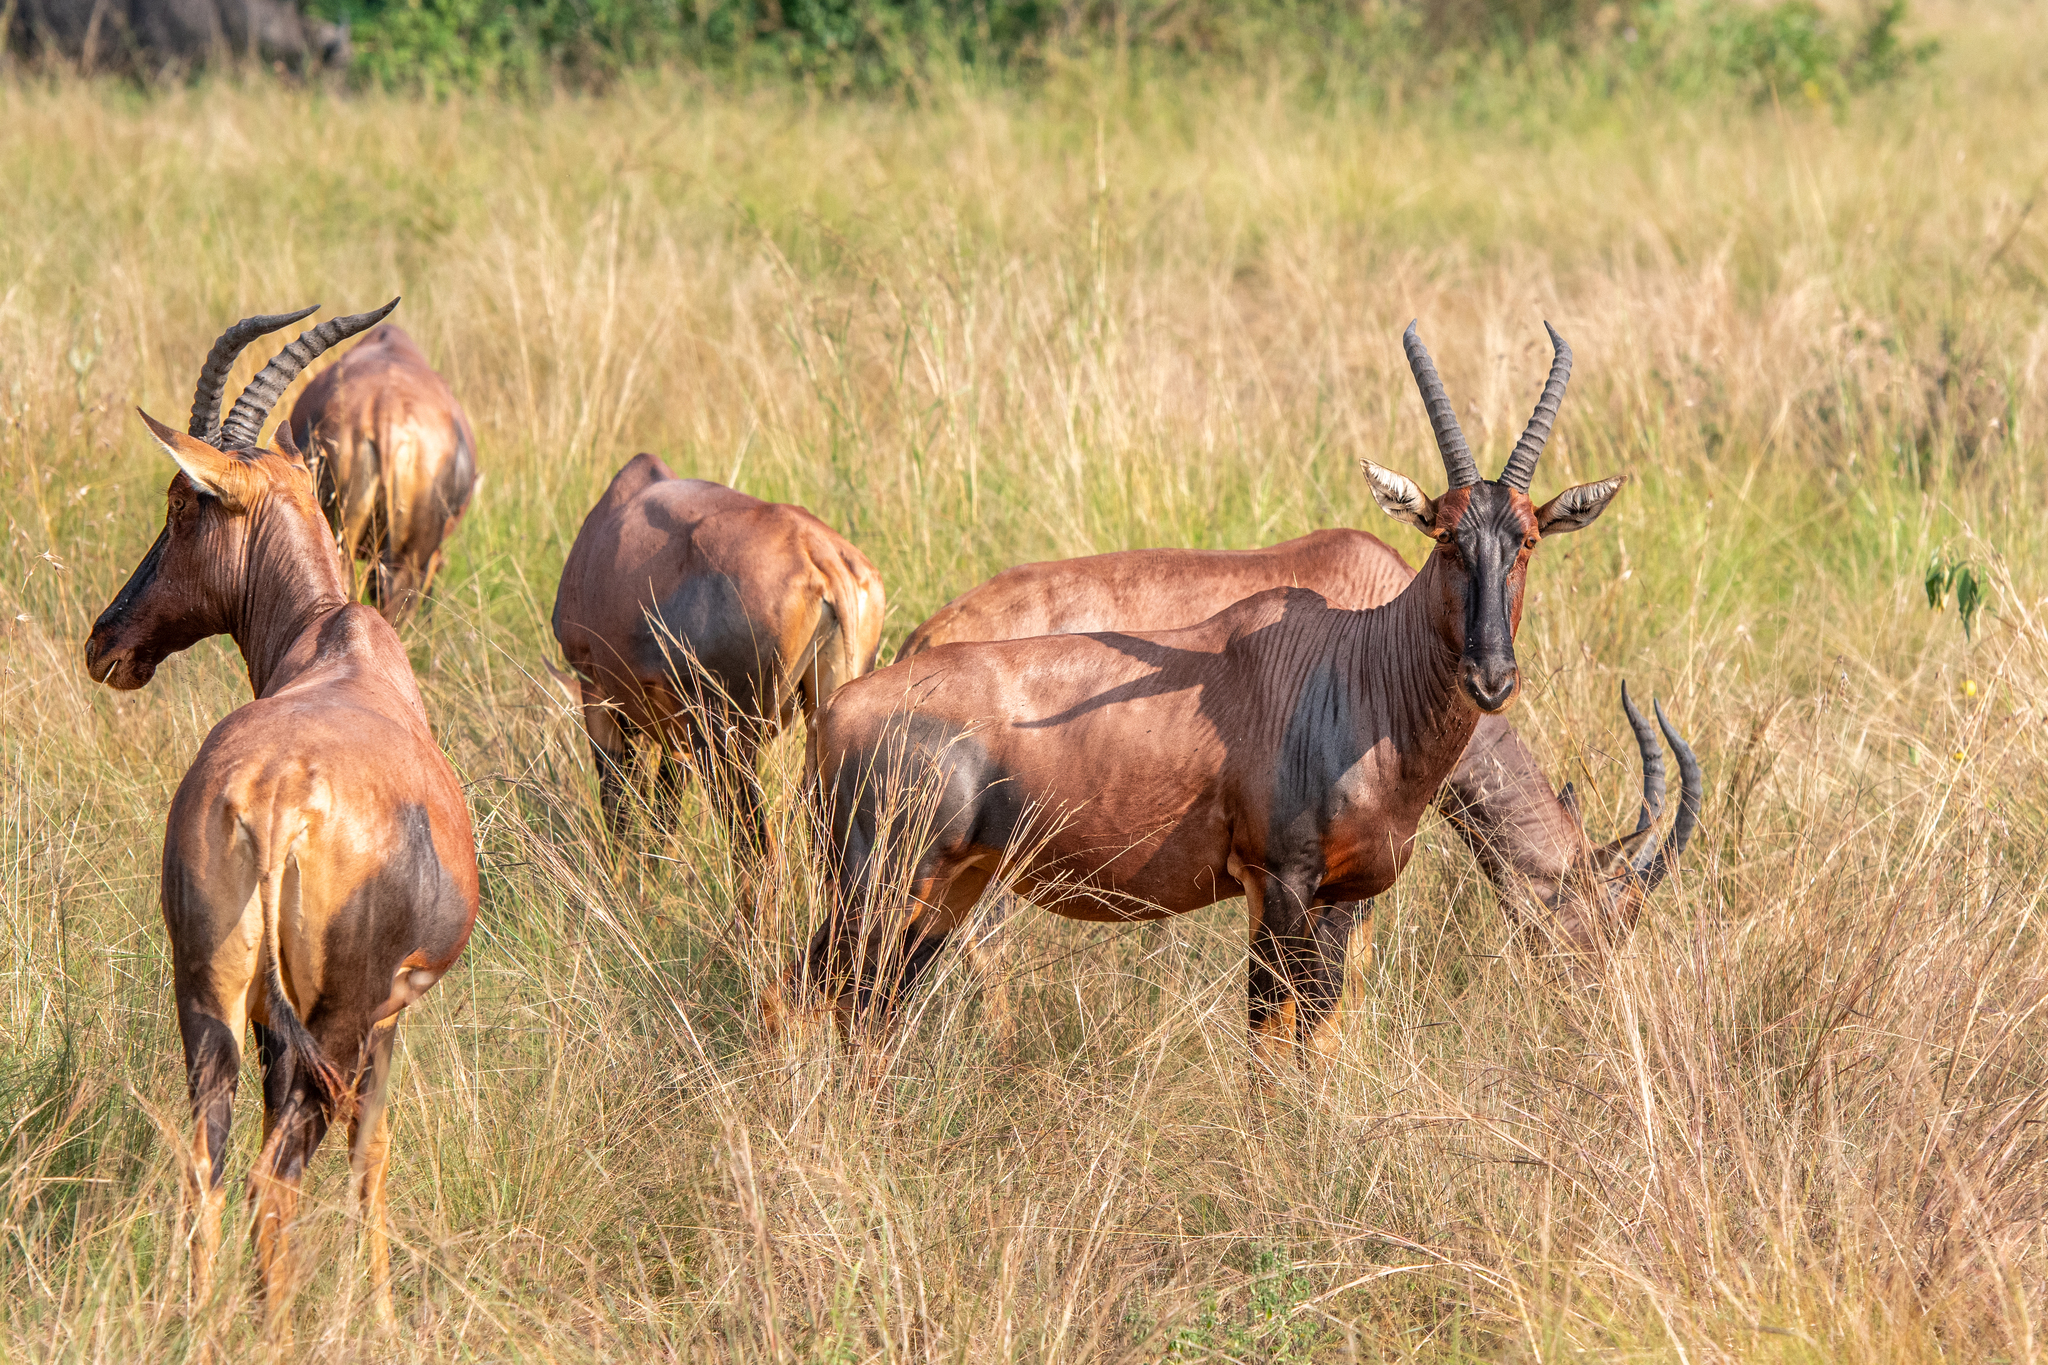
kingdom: Animalia
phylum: Chordata
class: Mammalia
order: Artiodactyla
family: Bovidae
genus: Damaliscus
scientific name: Damaliscus korrigum
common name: Topi
